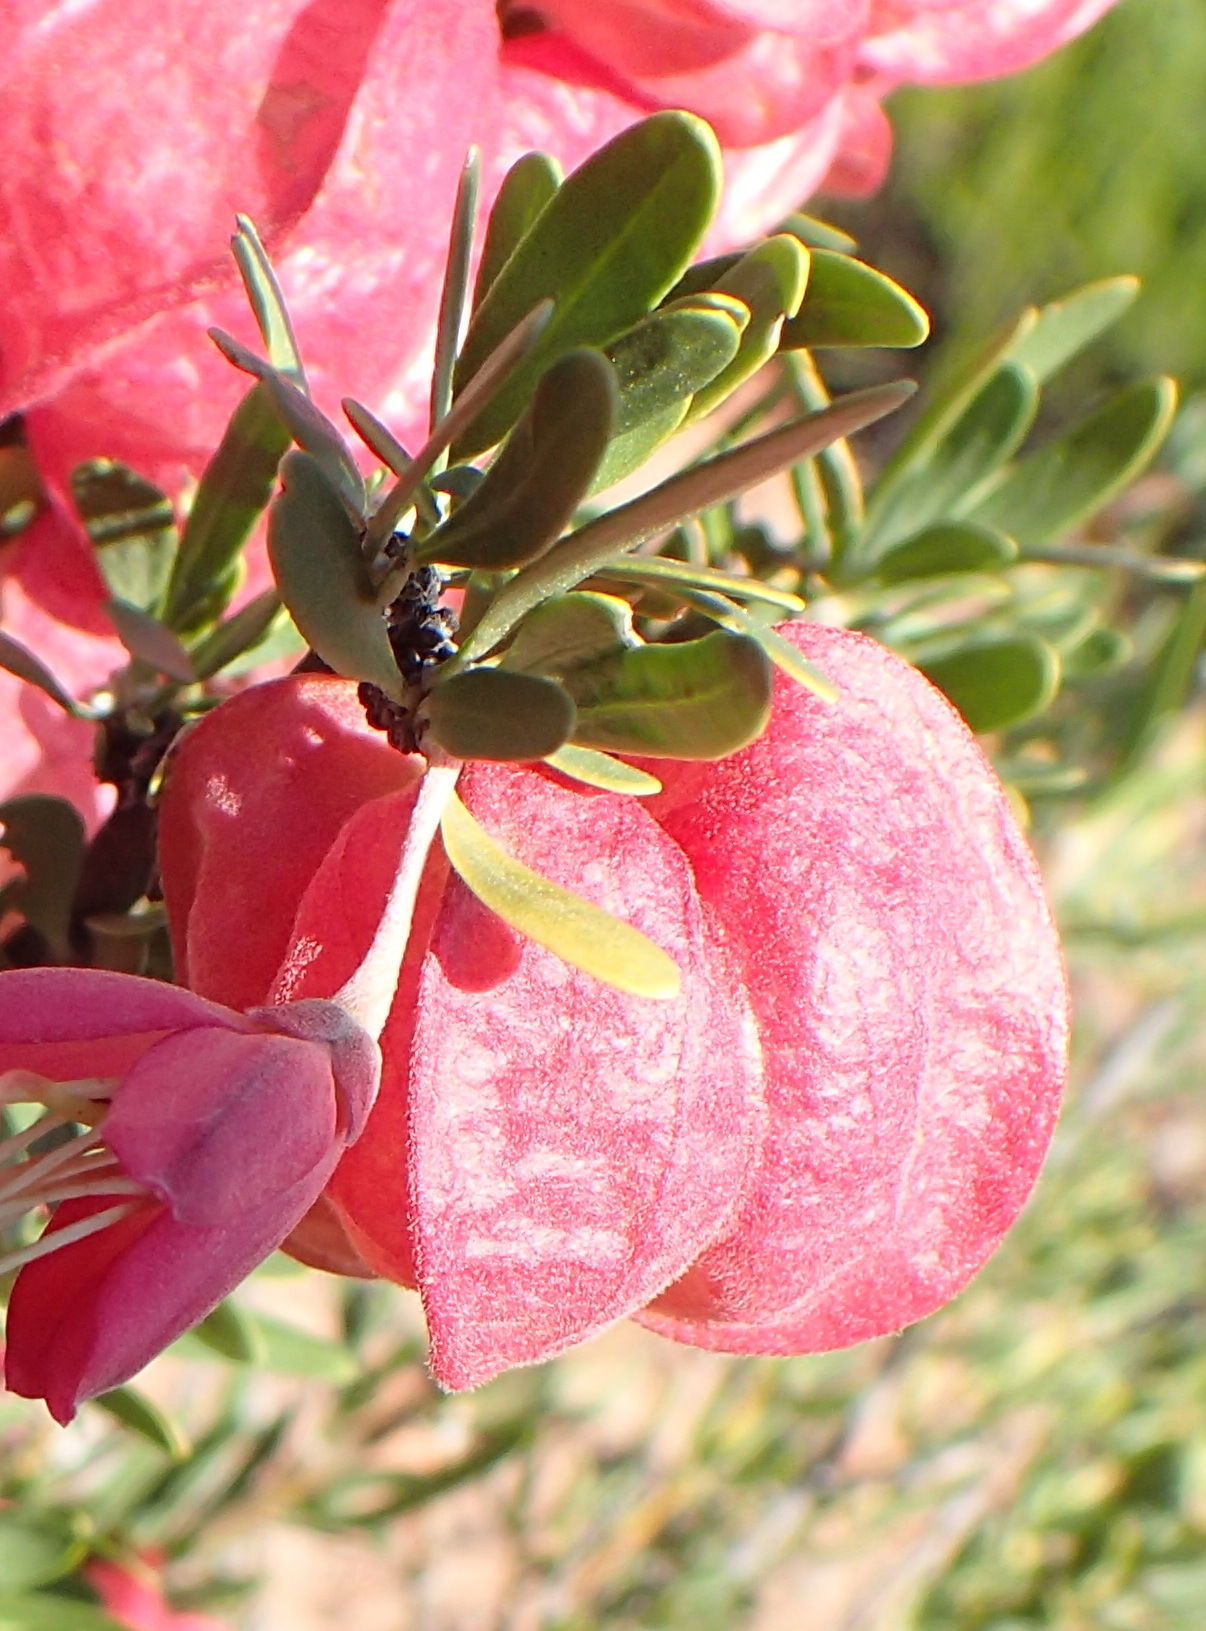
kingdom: Plantae
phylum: Tracheophyta
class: Magnoliopsida
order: Sapindales
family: Meliaceae
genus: Nymania
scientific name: Nymania capensis
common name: Chinese lantern tree
